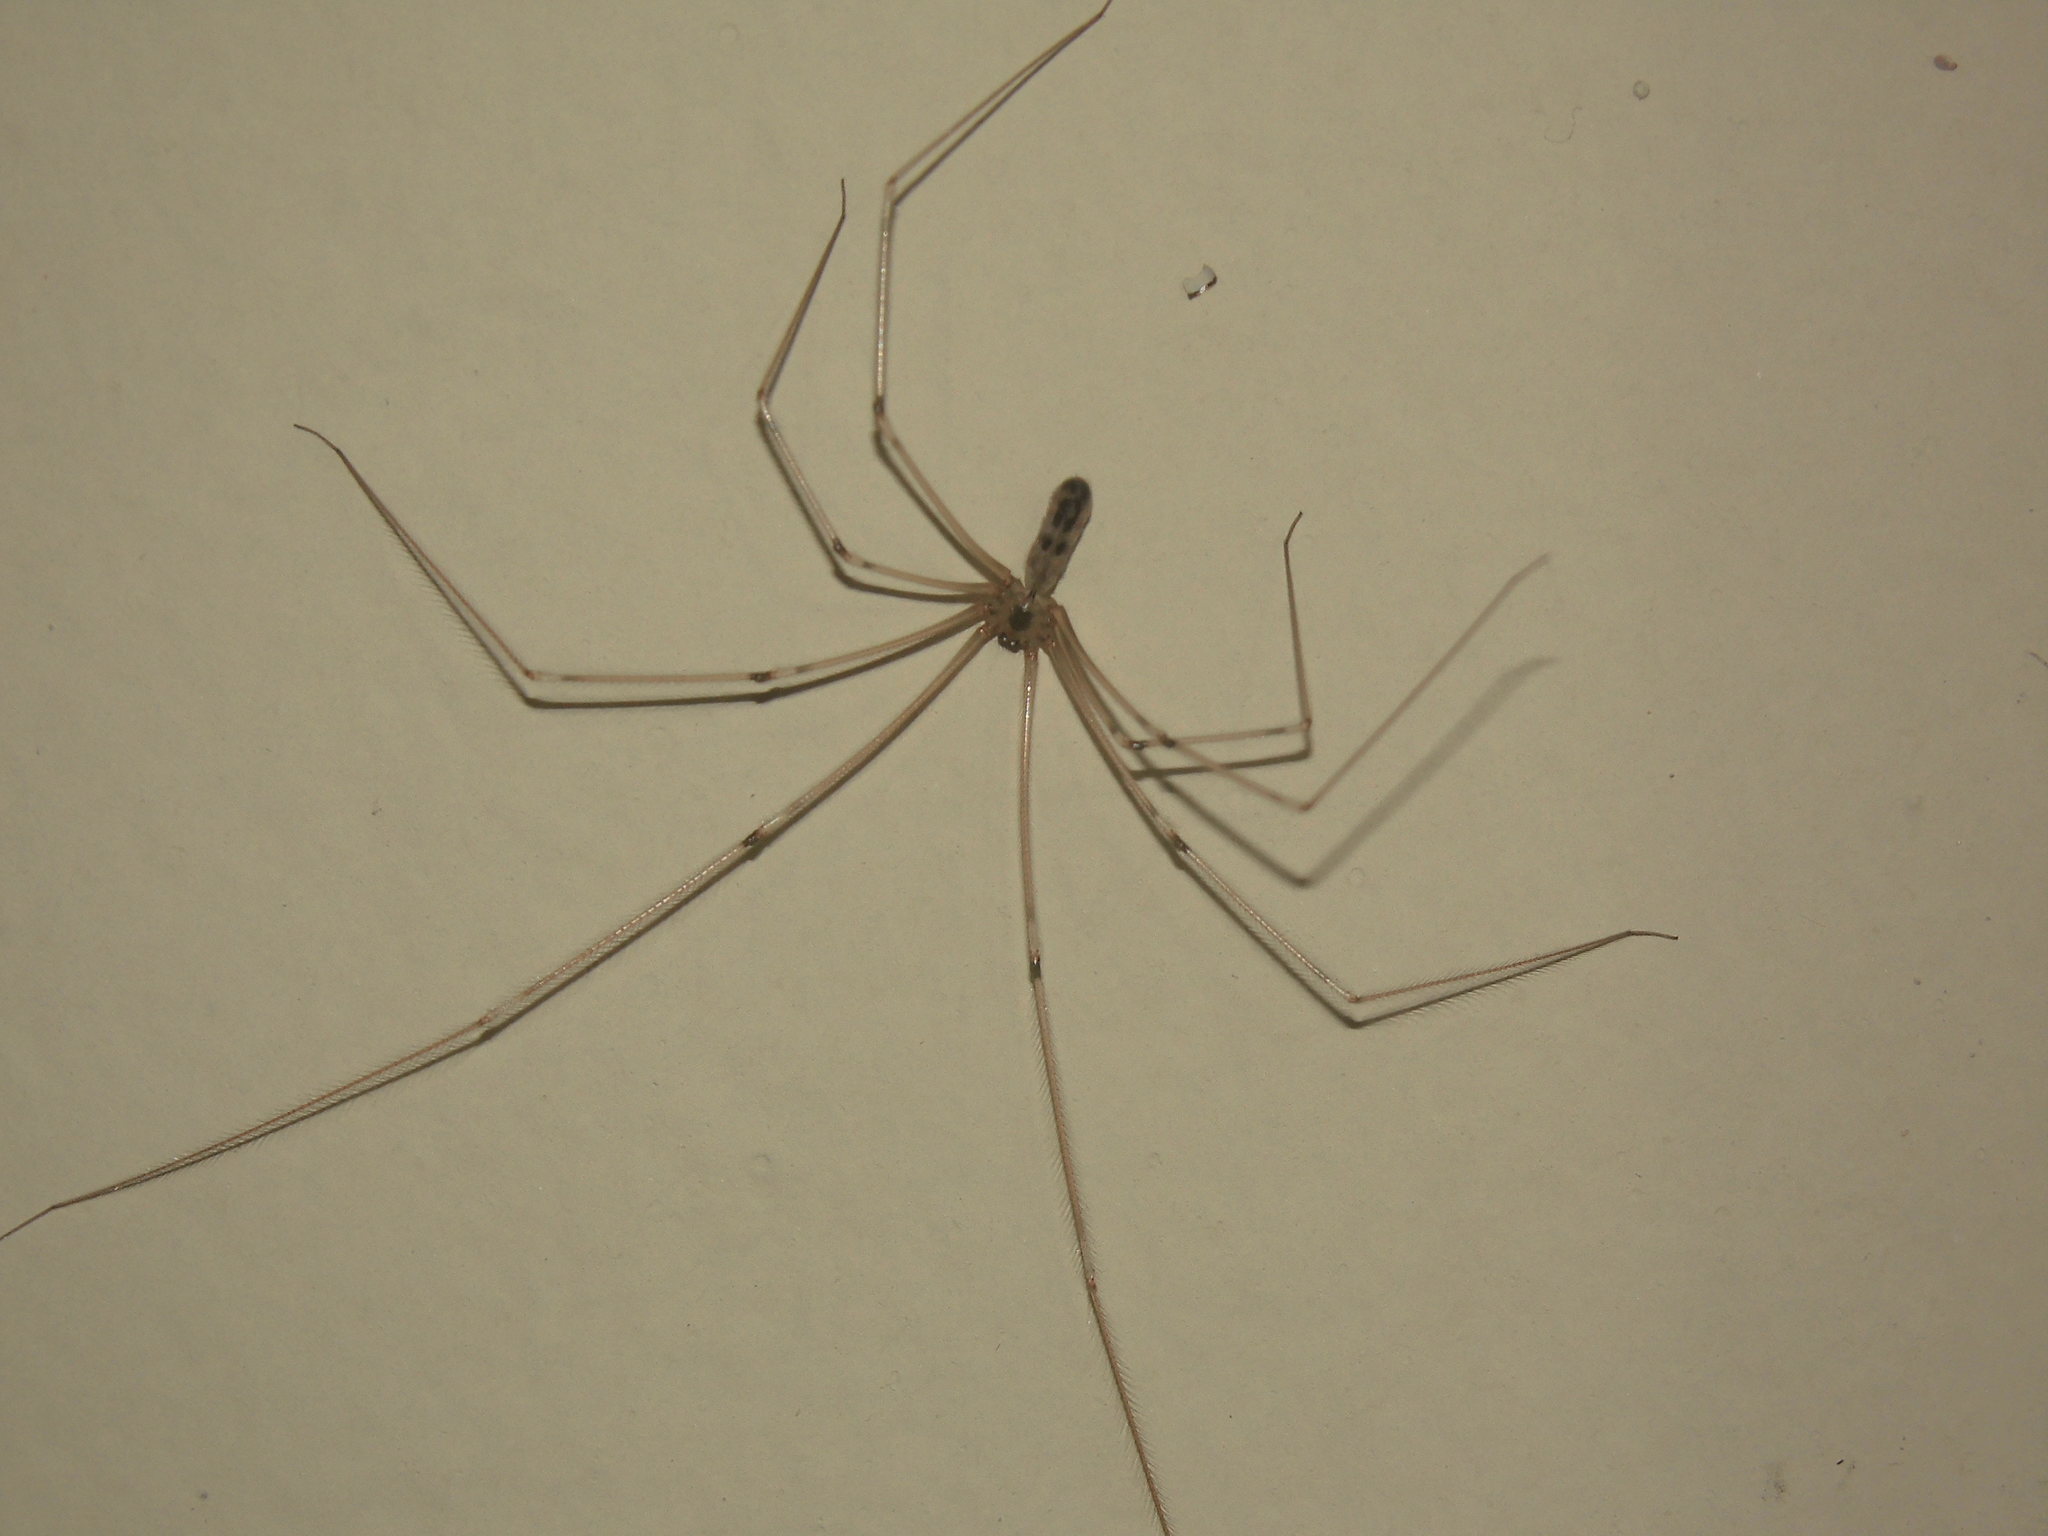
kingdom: Animalia
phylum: Arthropoda
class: Arachnida
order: Araneae
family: Pholcidae
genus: Pholcus
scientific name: Pholcus phalangioides
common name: Longbodied cellar spider
